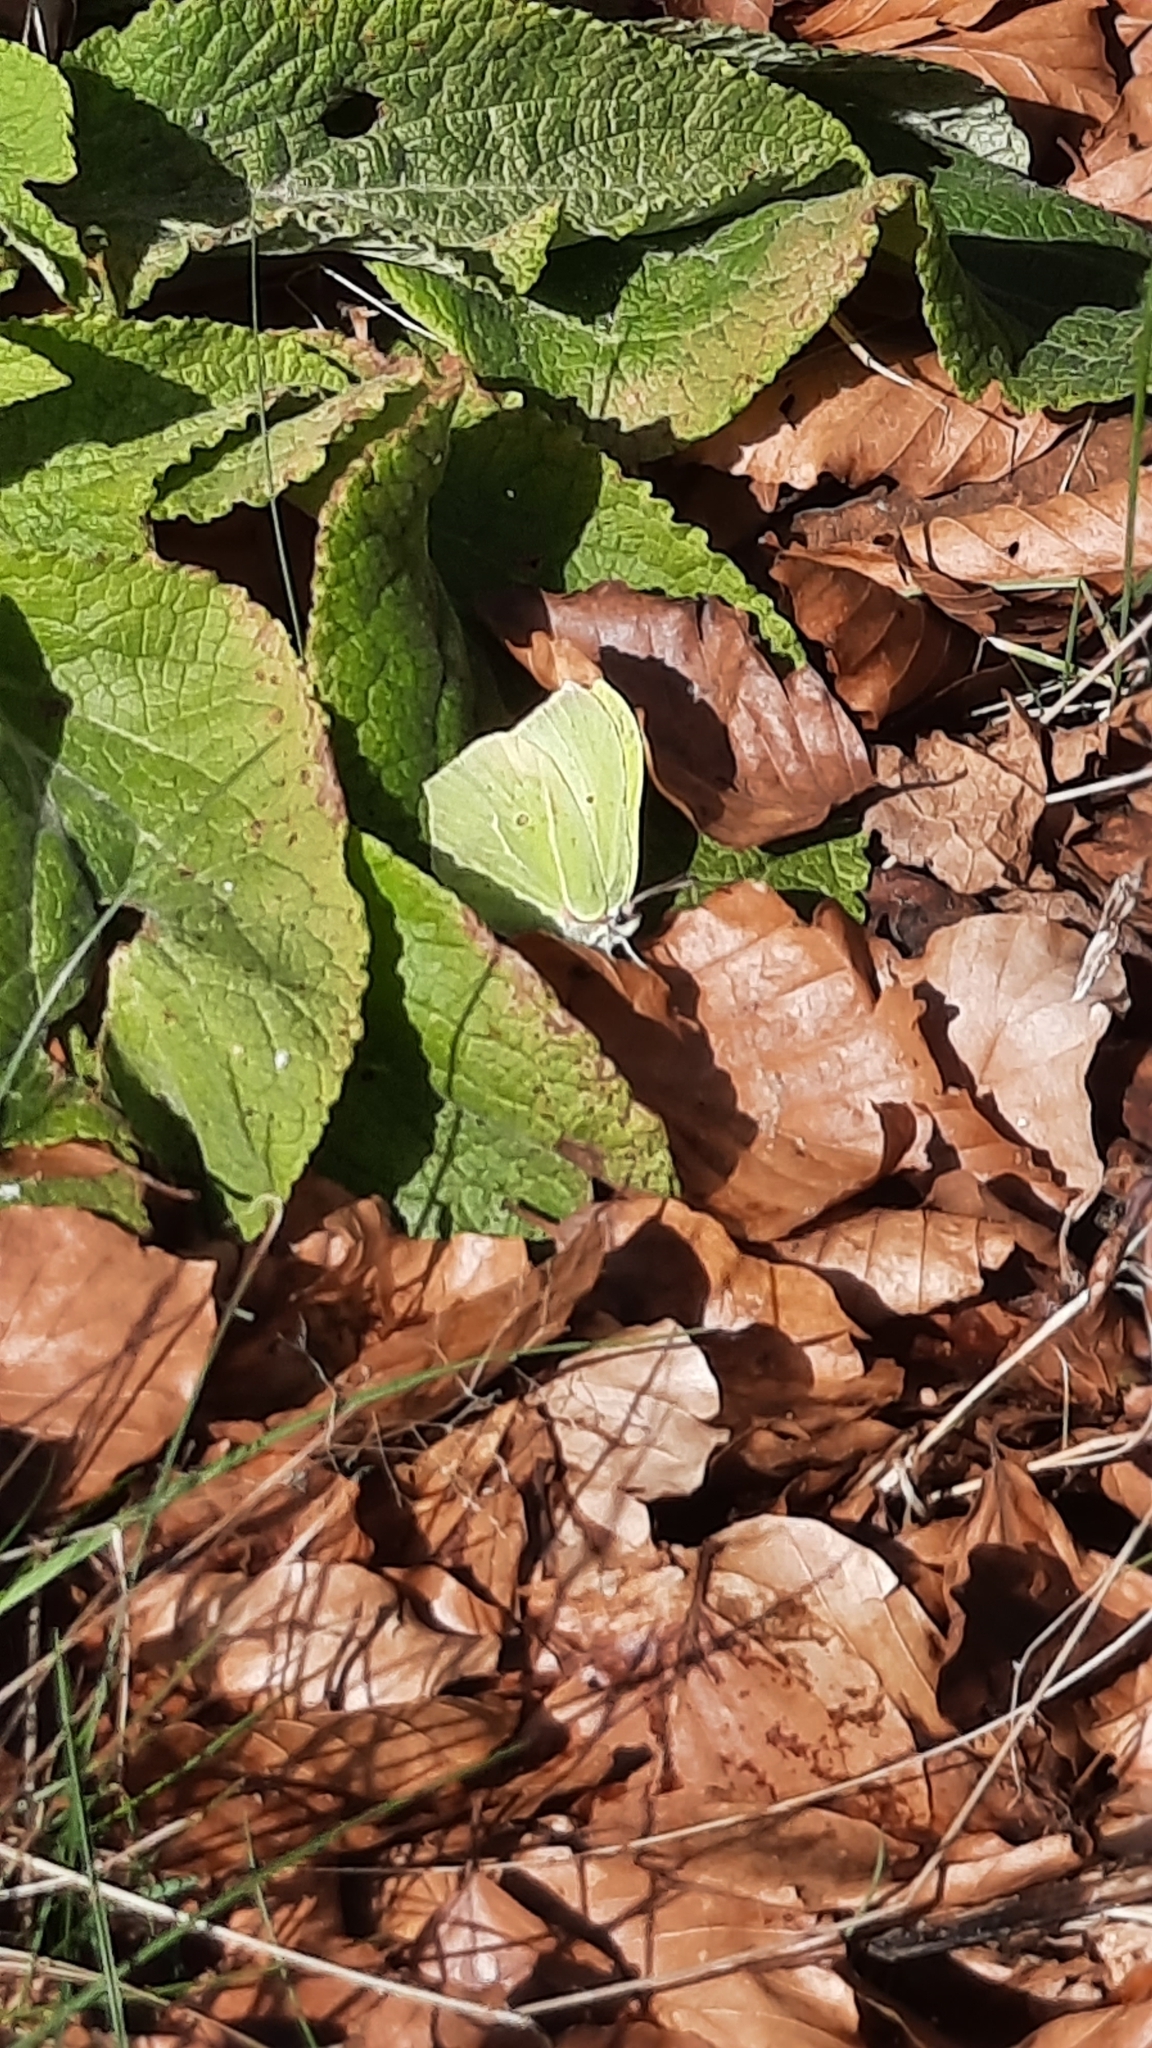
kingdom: Animalia
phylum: Arthropoda
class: Insecta
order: Lepidoptera
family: Pieridae
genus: Gonepteryx
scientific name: Gonepteryx rhamni
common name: Brimstone
